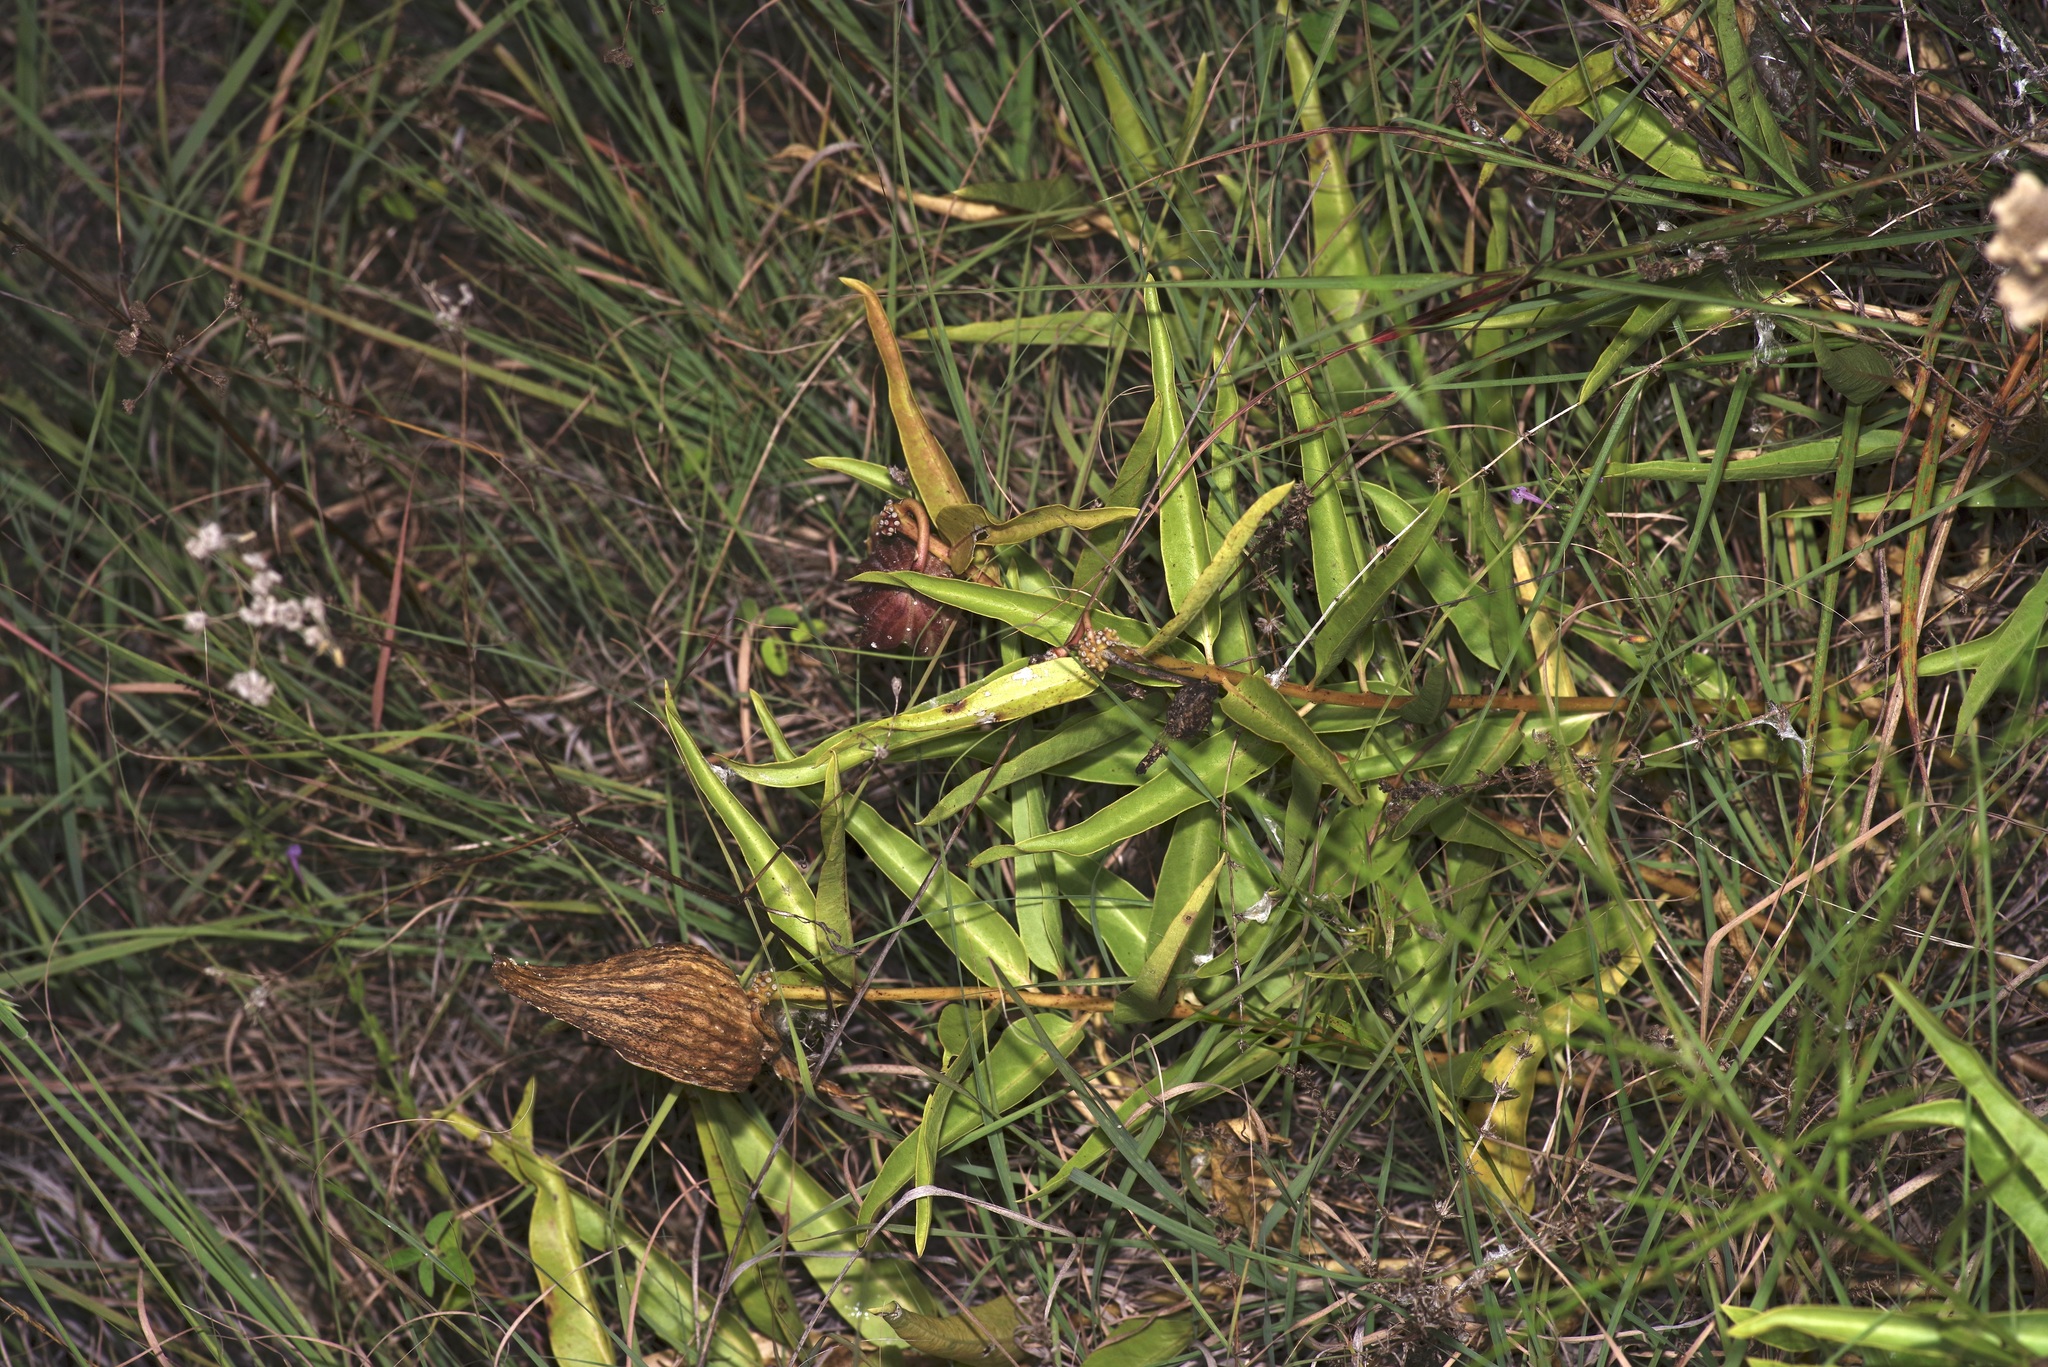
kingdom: Plantae
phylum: Tracheophyta
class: Magnoliopsida
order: Gentianales
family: Apocynaceae
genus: Asclepias
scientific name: Asclepias asperula
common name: Antelope horns
